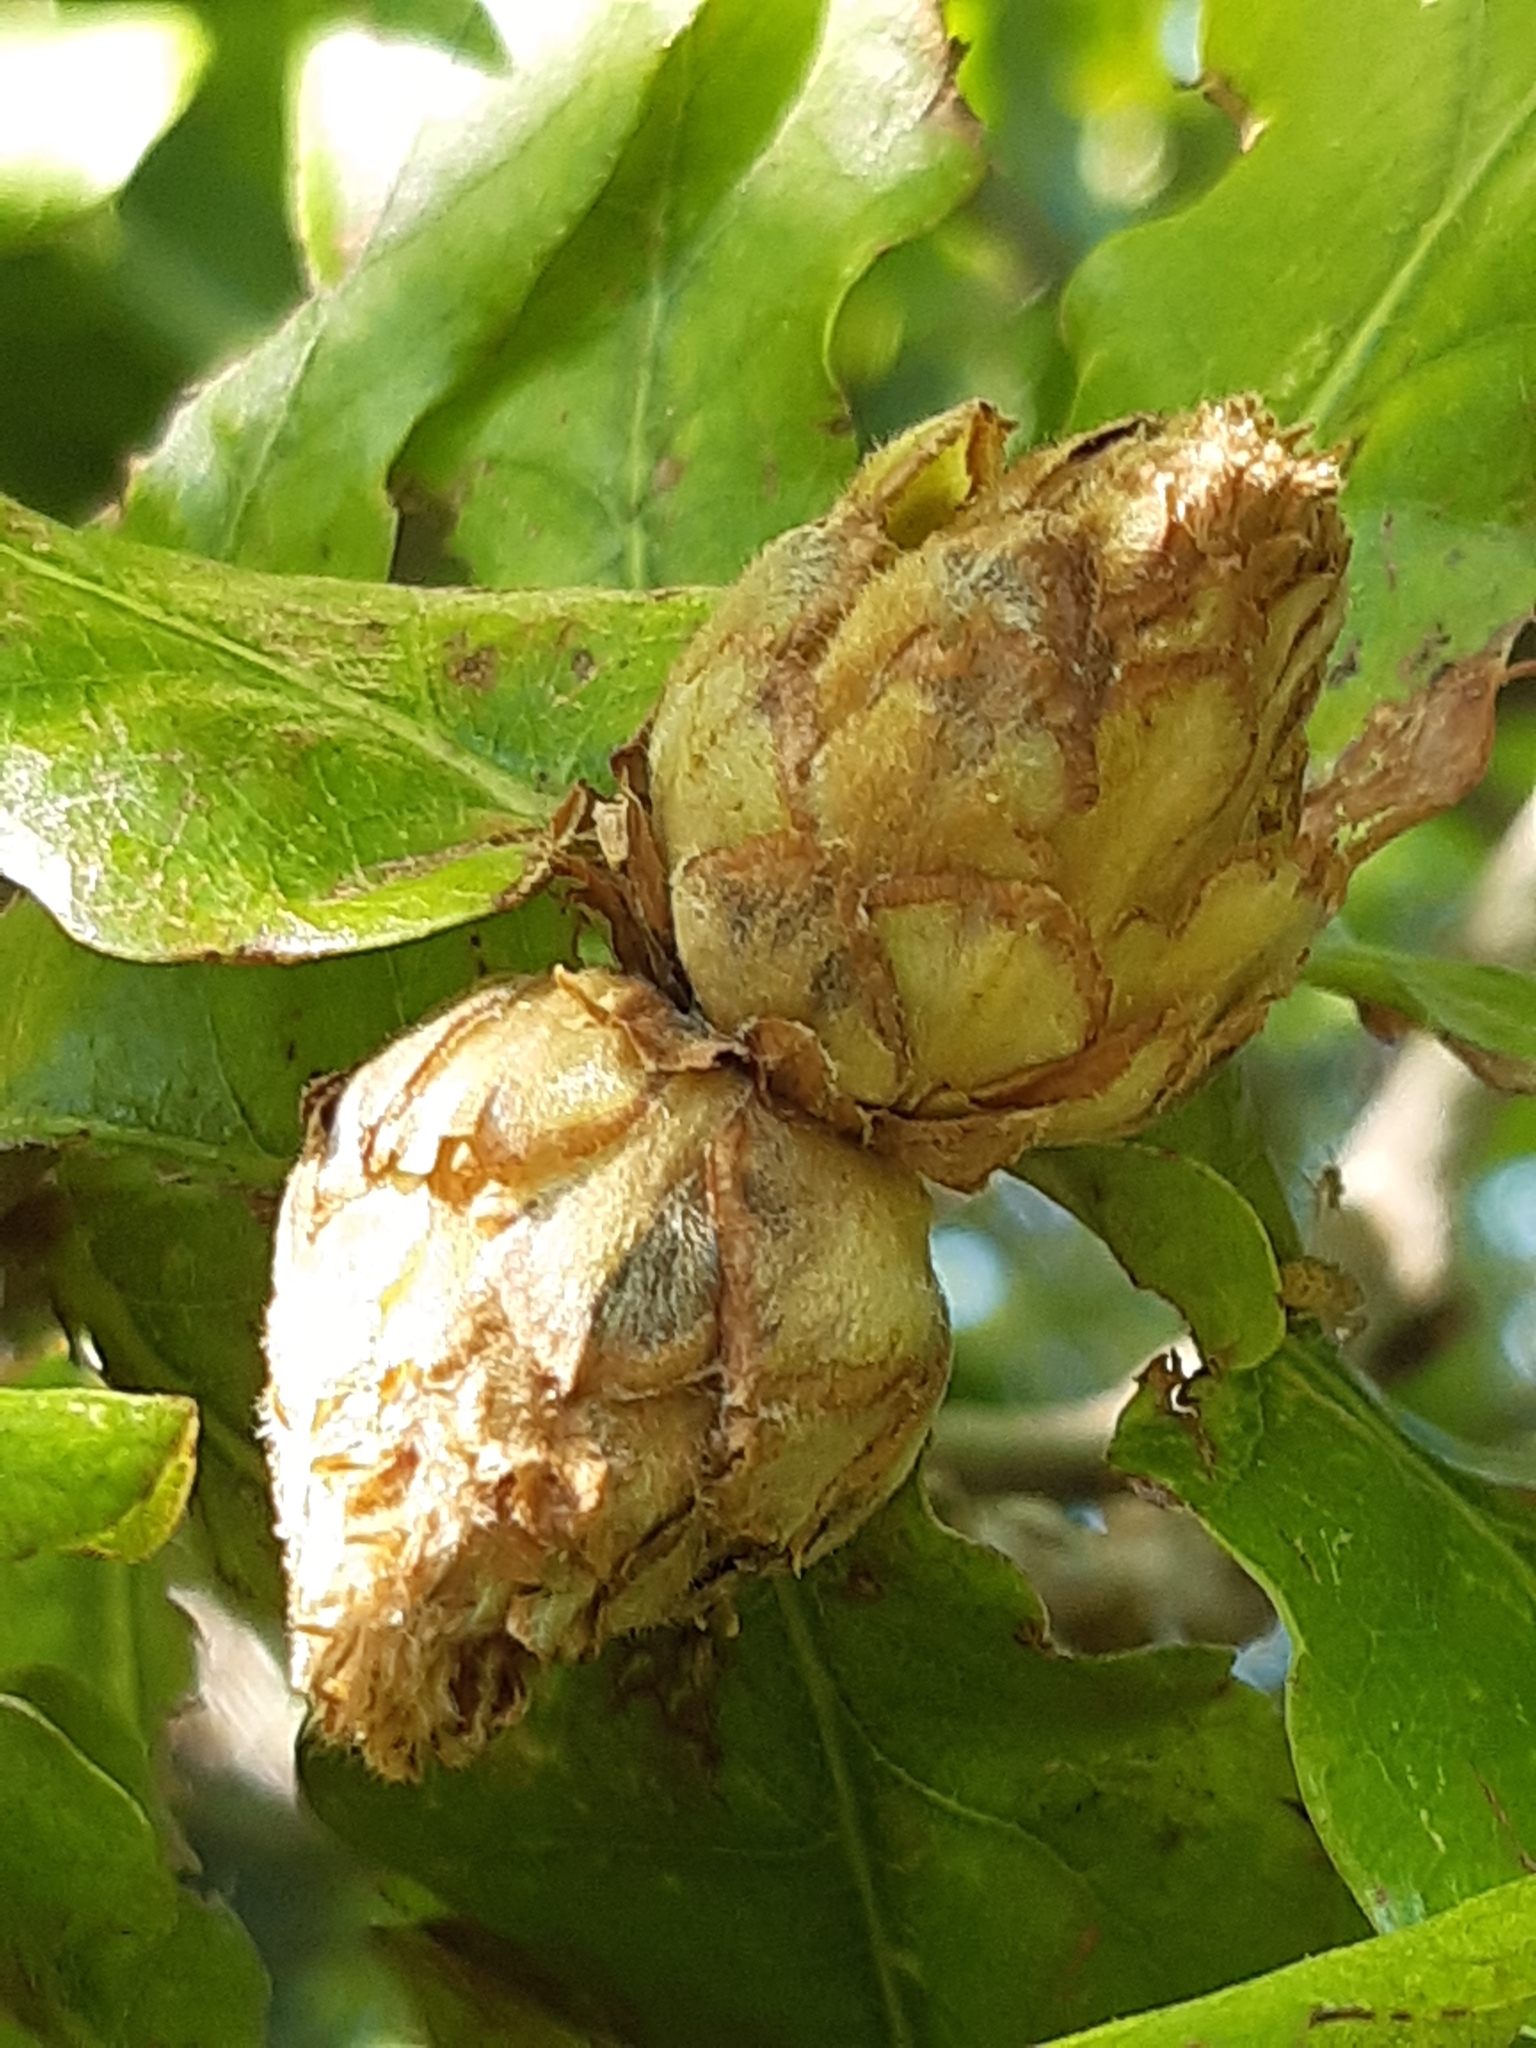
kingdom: Animalia
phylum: Arthropoda
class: Insecta
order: Hymenoptera
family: Cynipidae
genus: Andricus
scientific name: Andricus foecundatrix
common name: Artichoke gall
